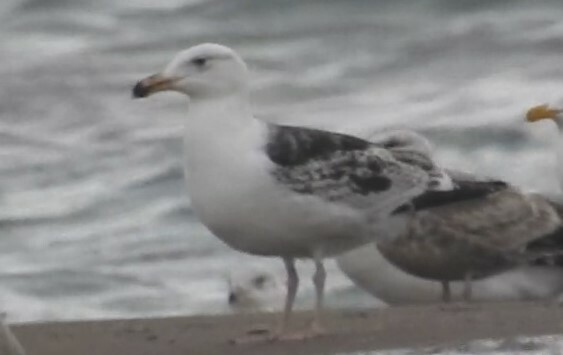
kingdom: Animalia
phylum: Chordata
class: Aves
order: Charadriiformes
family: Laridae
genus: Larus
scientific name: Larus marinus
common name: Great black-backed gull
